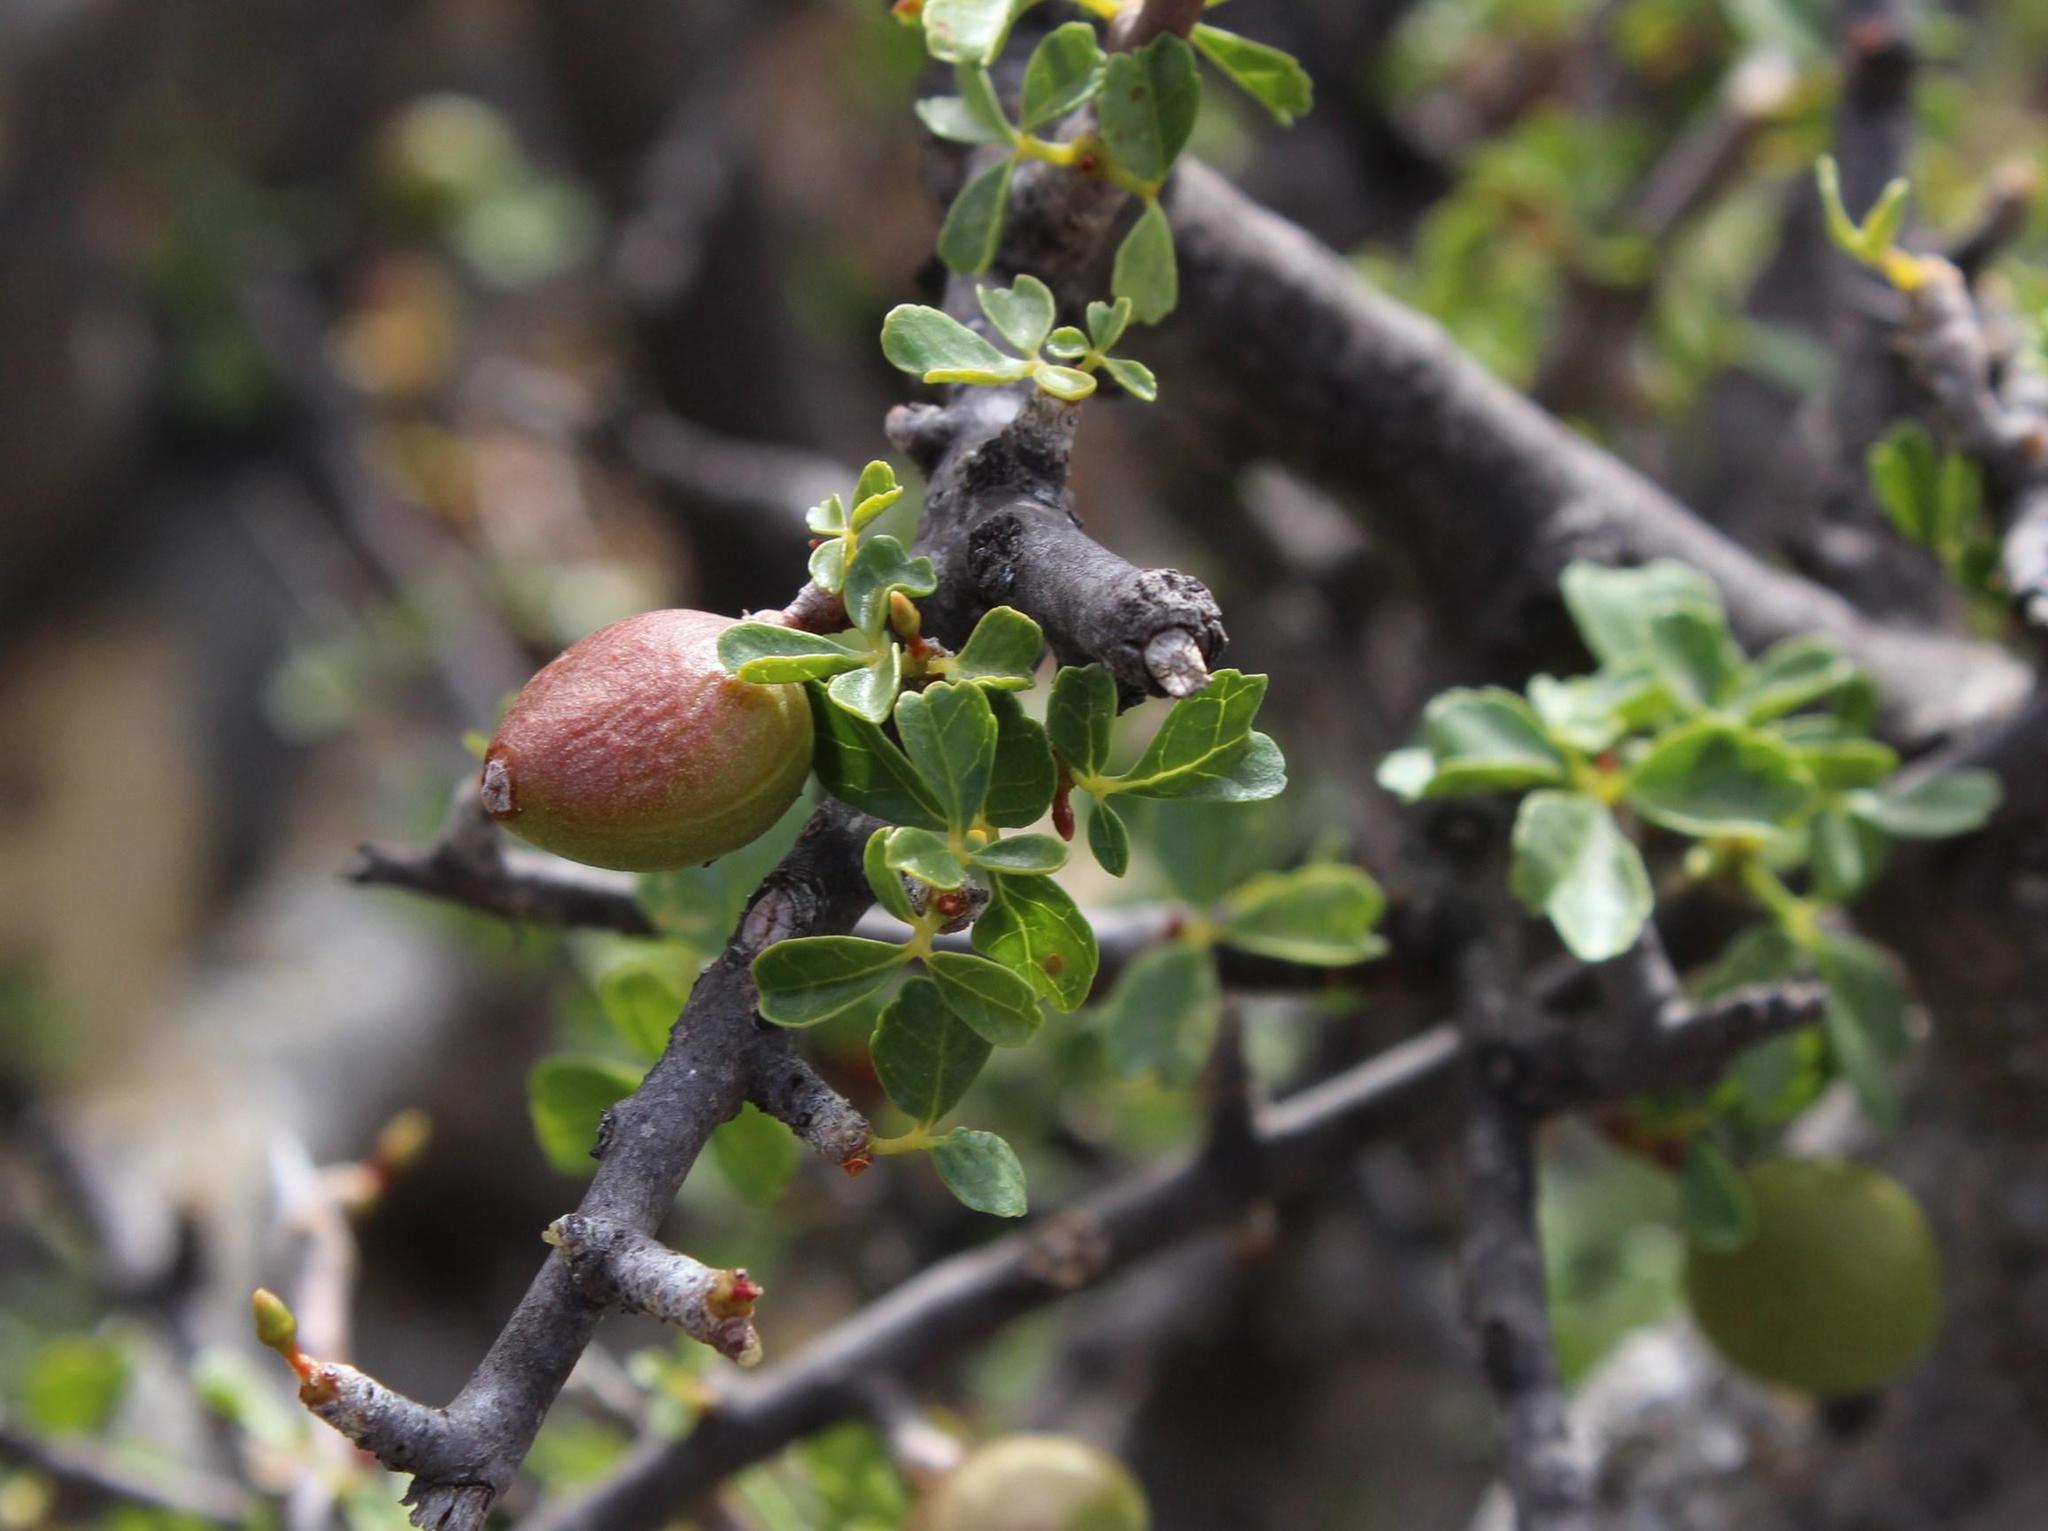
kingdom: Plantae
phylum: Tracheophyta
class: Magnoliopsida
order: Sapindales
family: Burseraceae
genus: Commiphora
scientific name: Commiphora capensis
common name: Namaqua commiphora
